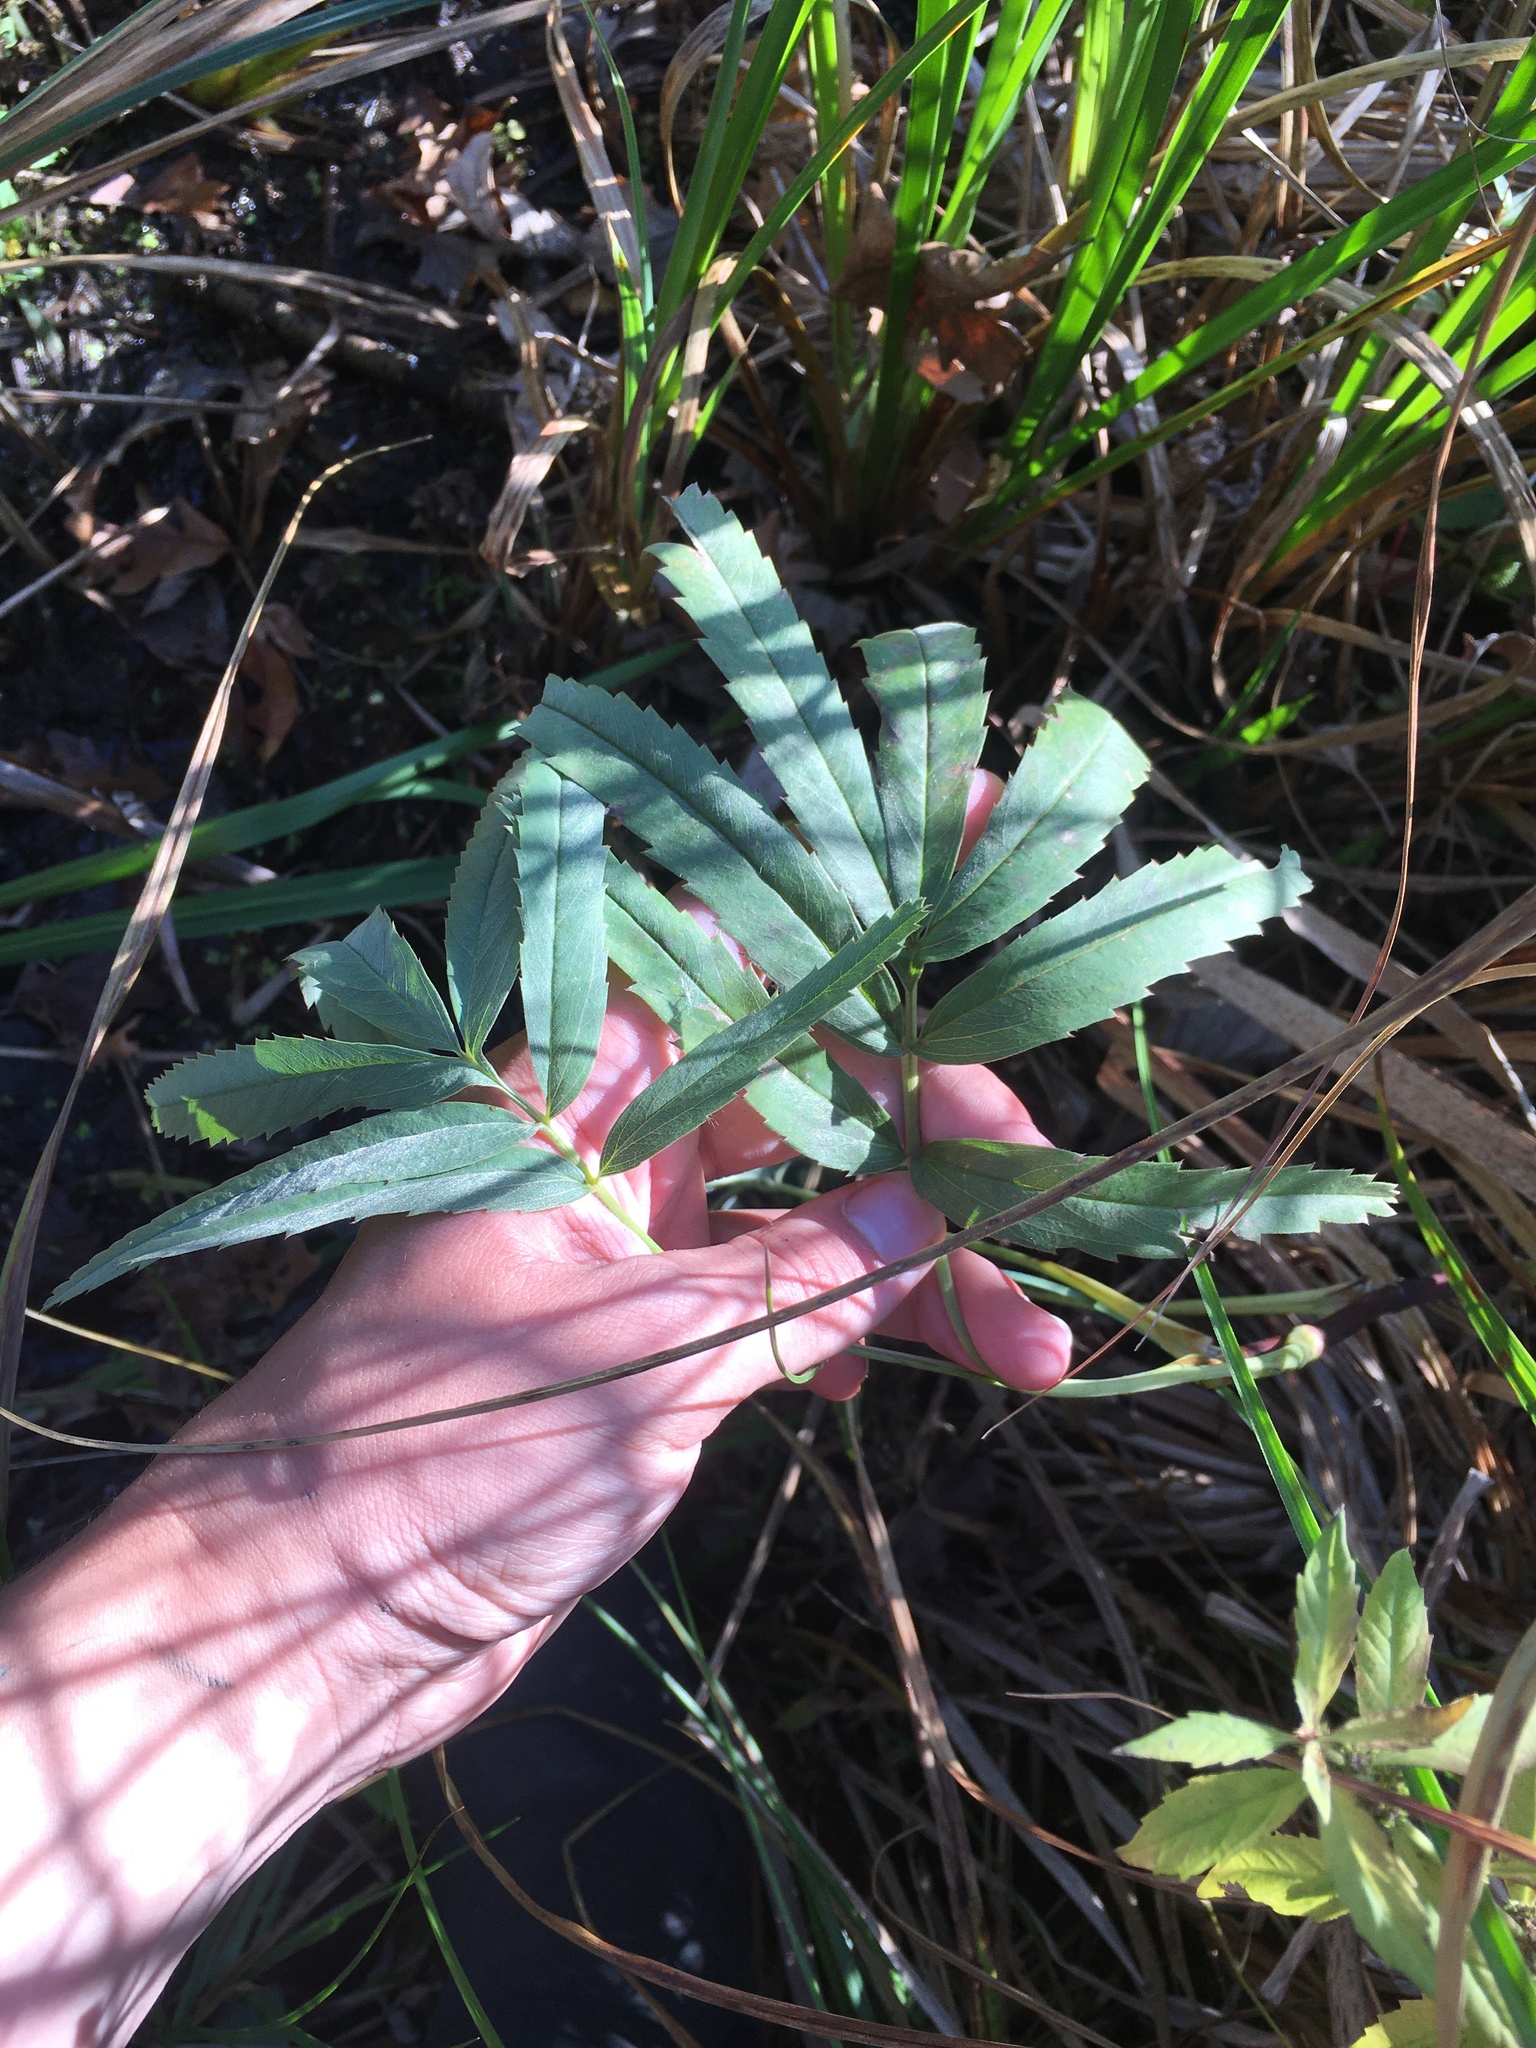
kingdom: Plantae
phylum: Tracheophyta
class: Magnoliopsida
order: Rosales
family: Rosaceae
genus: Comarum
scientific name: Comarum palustre
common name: Marsh cinquefoil
